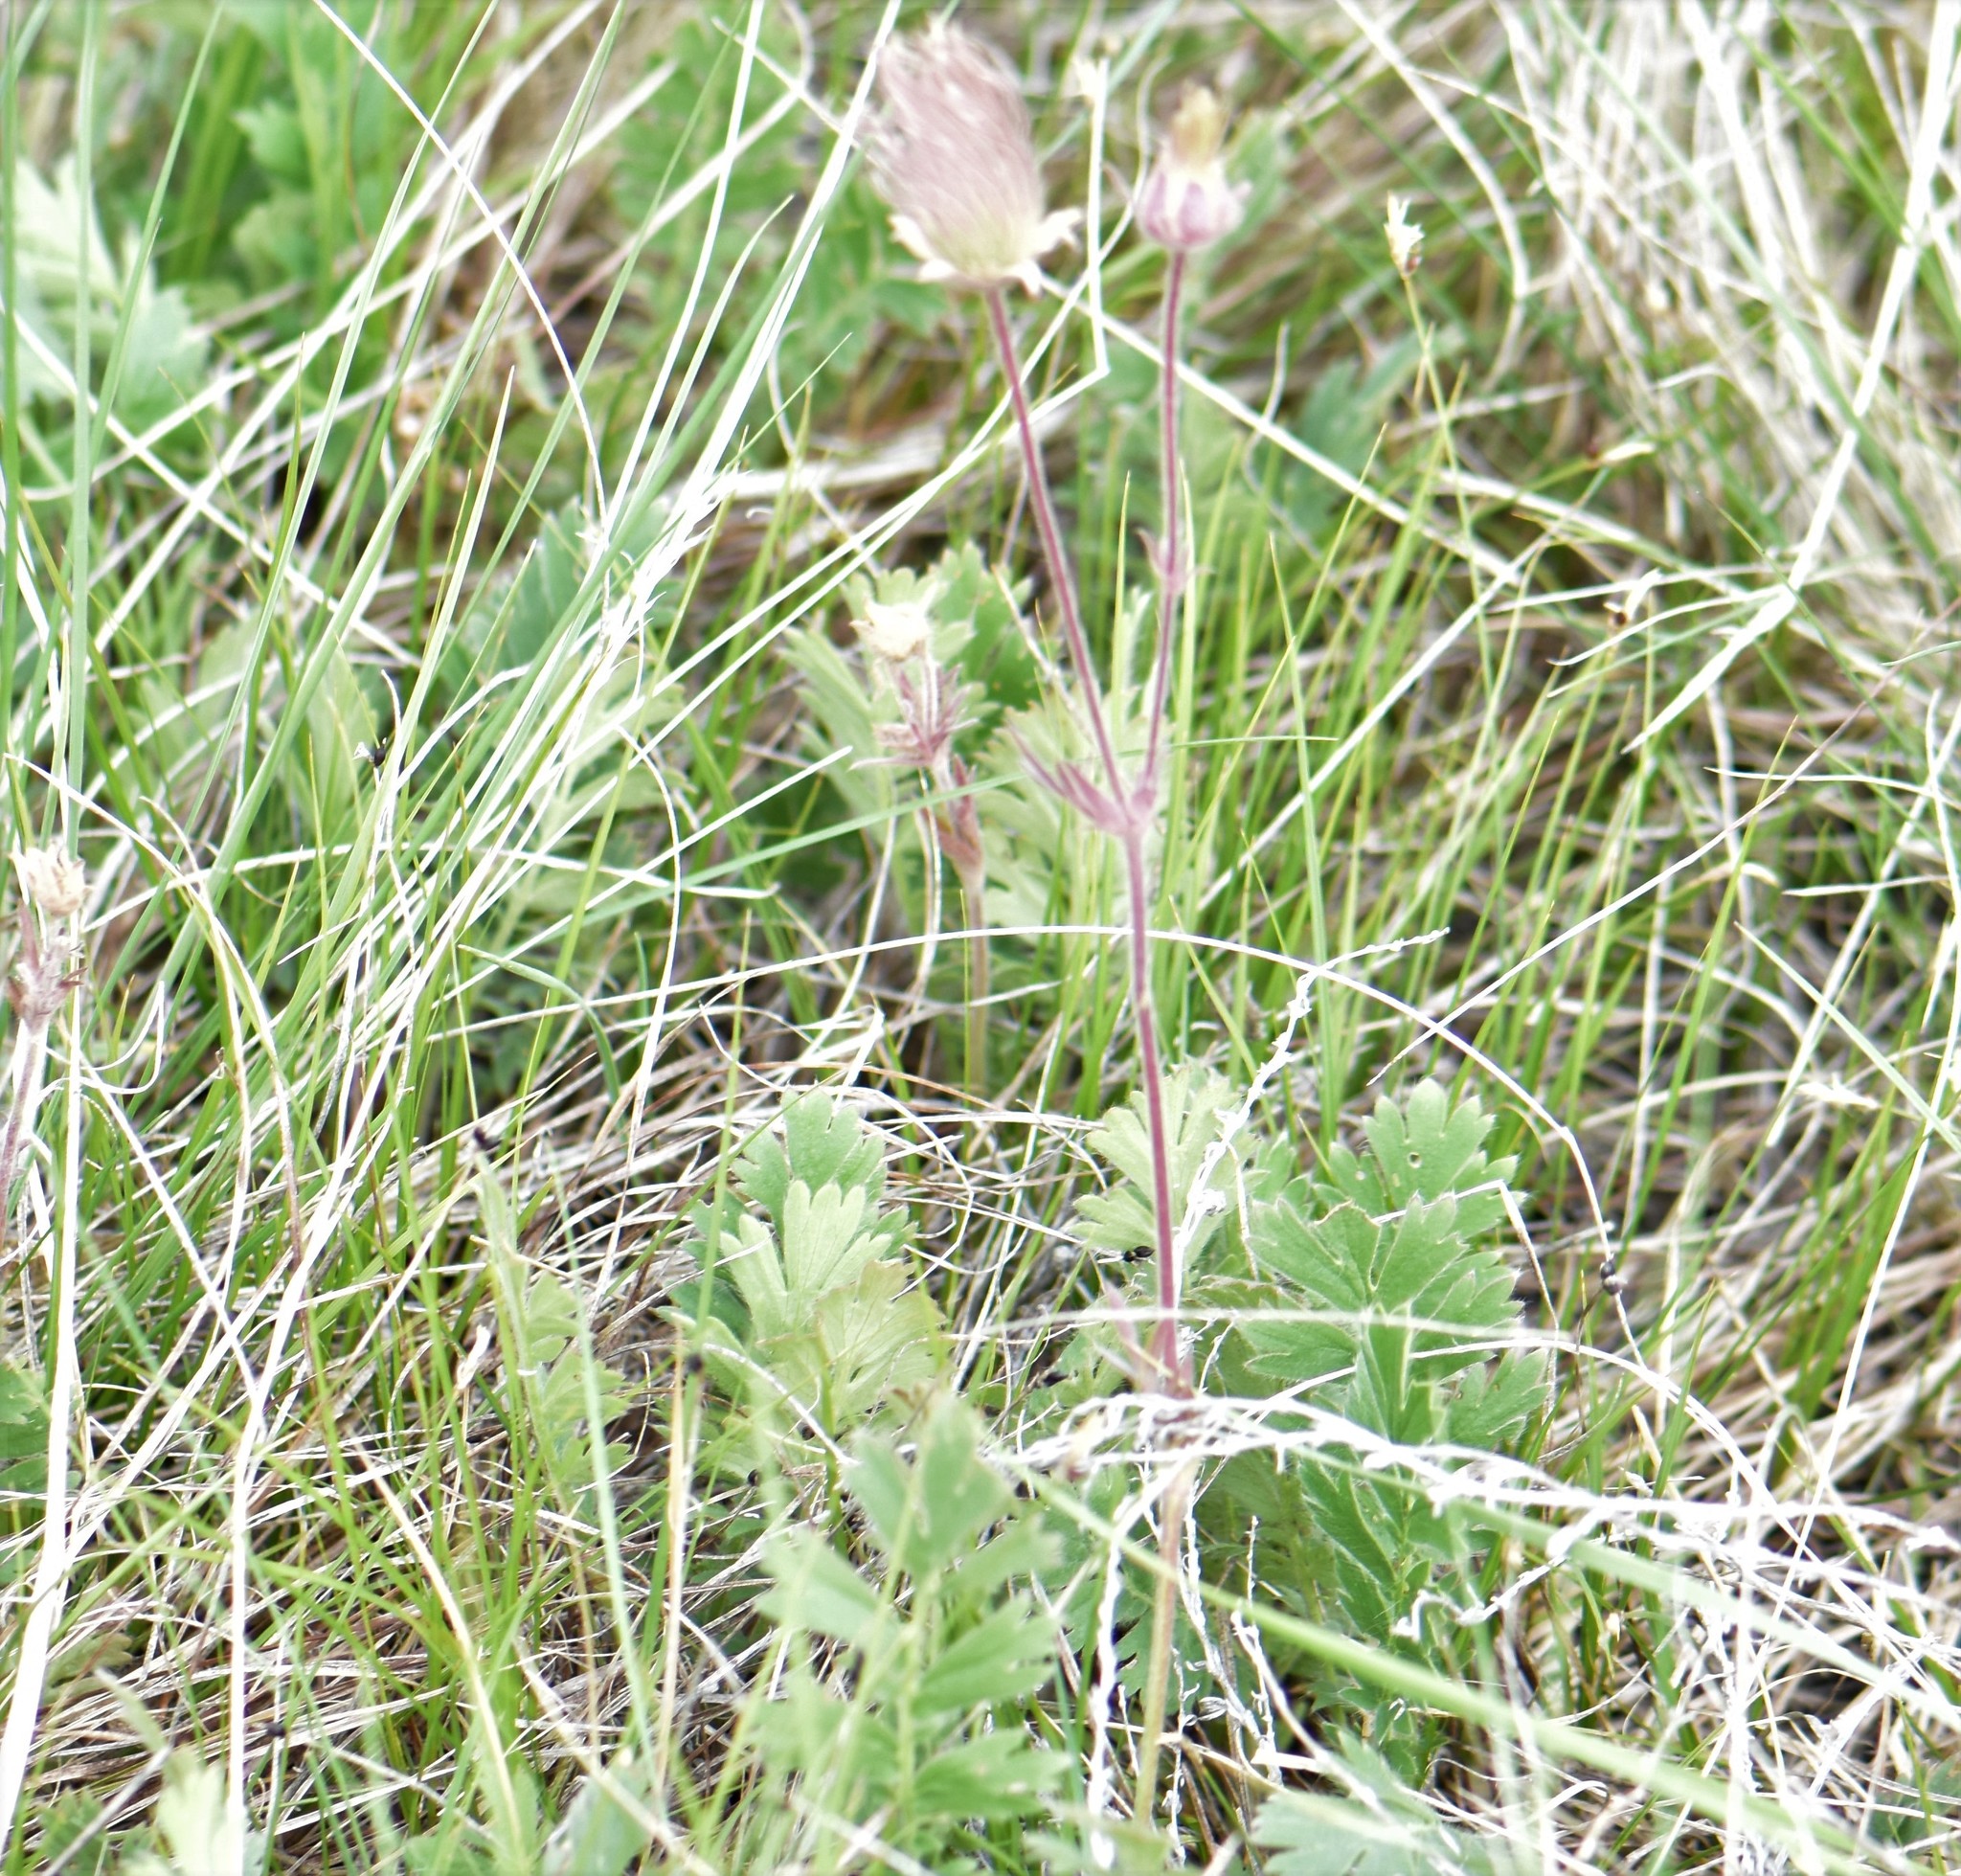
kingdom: Plantae
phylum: Tracheophyta
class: Magnoliopsida
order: Rosales
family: Rosaceae
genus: Geum
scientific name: Geum triflorum
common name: Old man's whiskers
